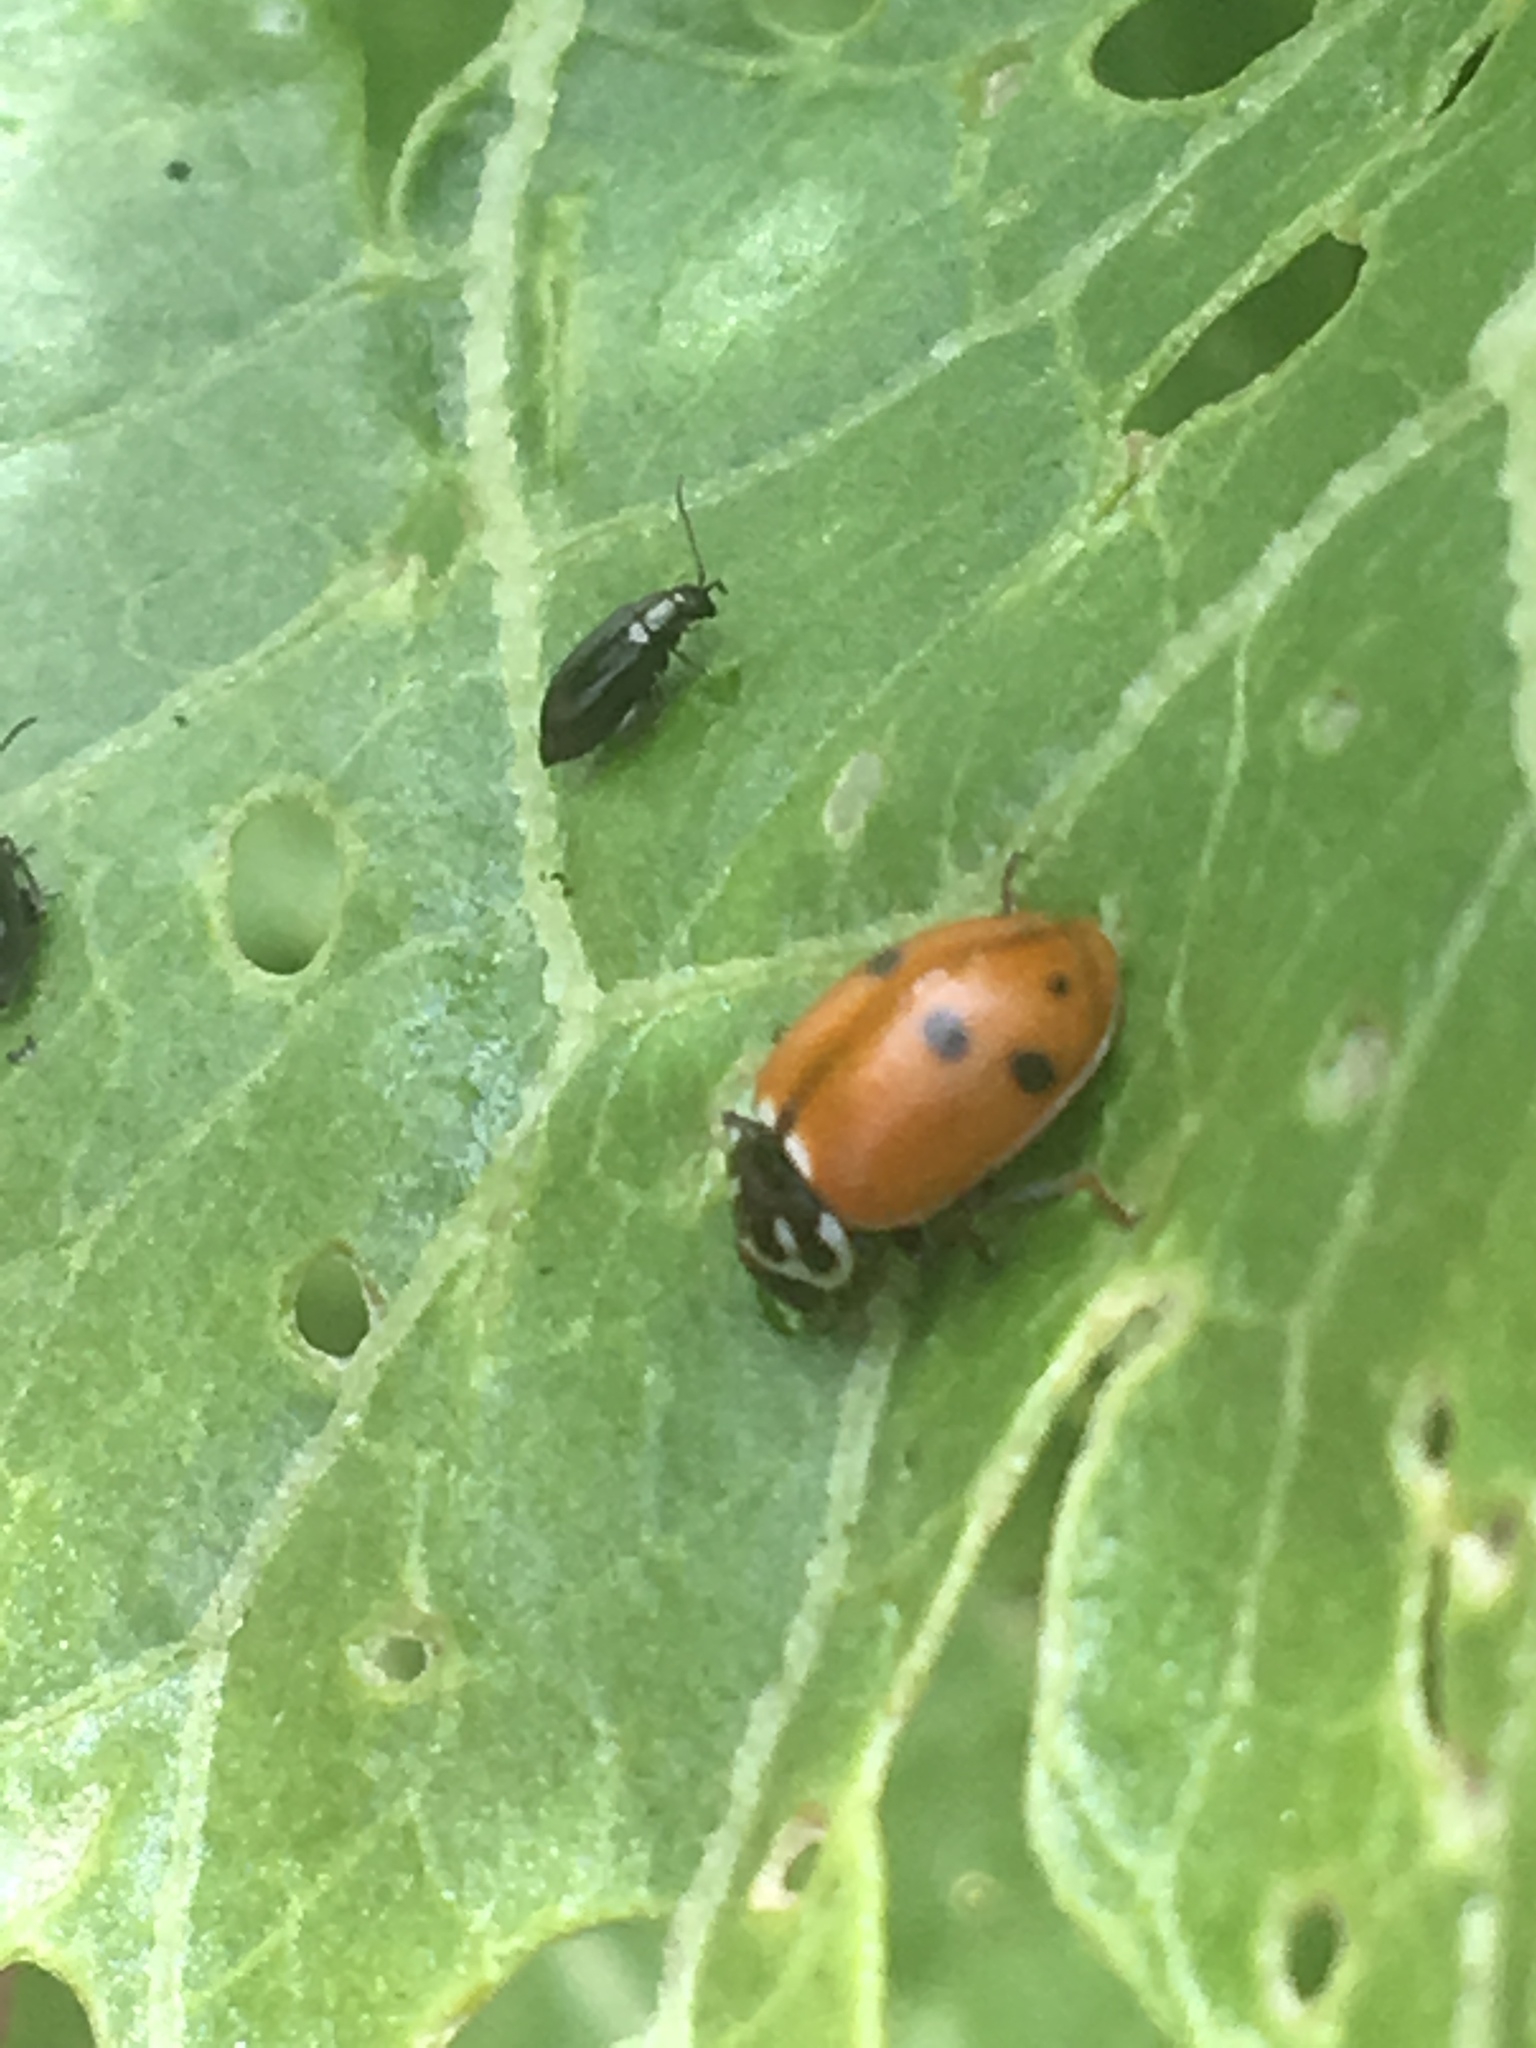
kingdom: Animalia
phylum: Arthropoda
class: Insecta
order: Coleoptera
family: Coccinellidae
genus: Hippodamia
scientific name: Hippodamia variegata
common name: Ladybird beetle
